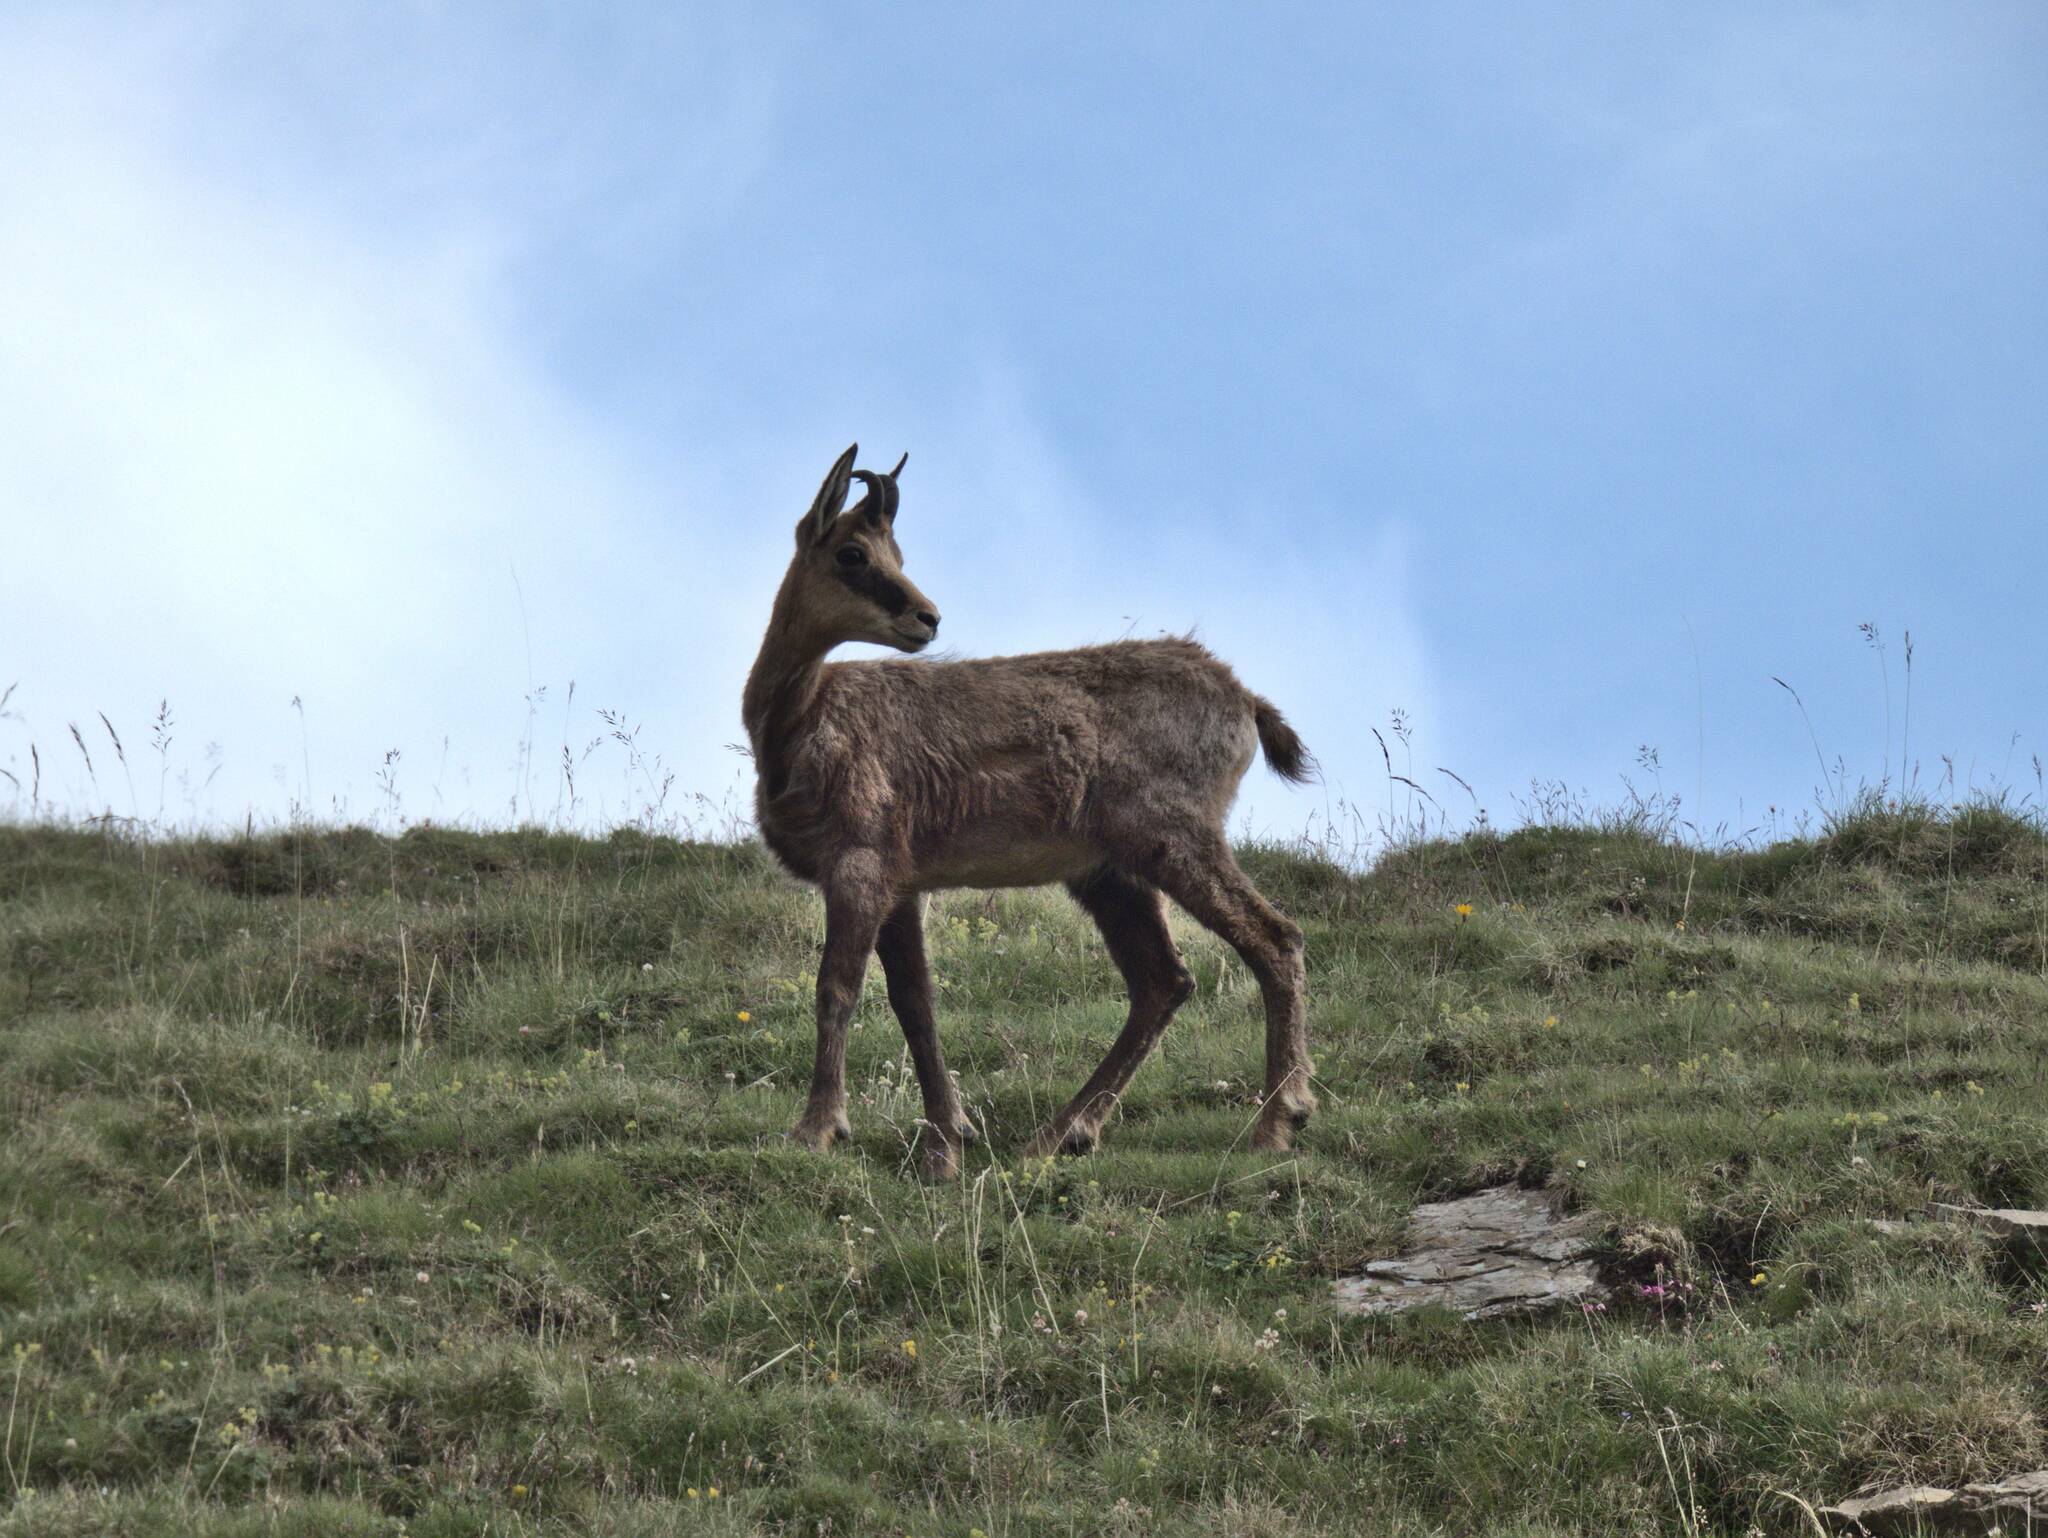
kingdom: Animalia
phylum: Chordata
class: Mammalia
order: Artiodactyla
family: Bovidae
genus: Rupicapra
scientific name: Rupicapra rupicapra
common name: Chamois
